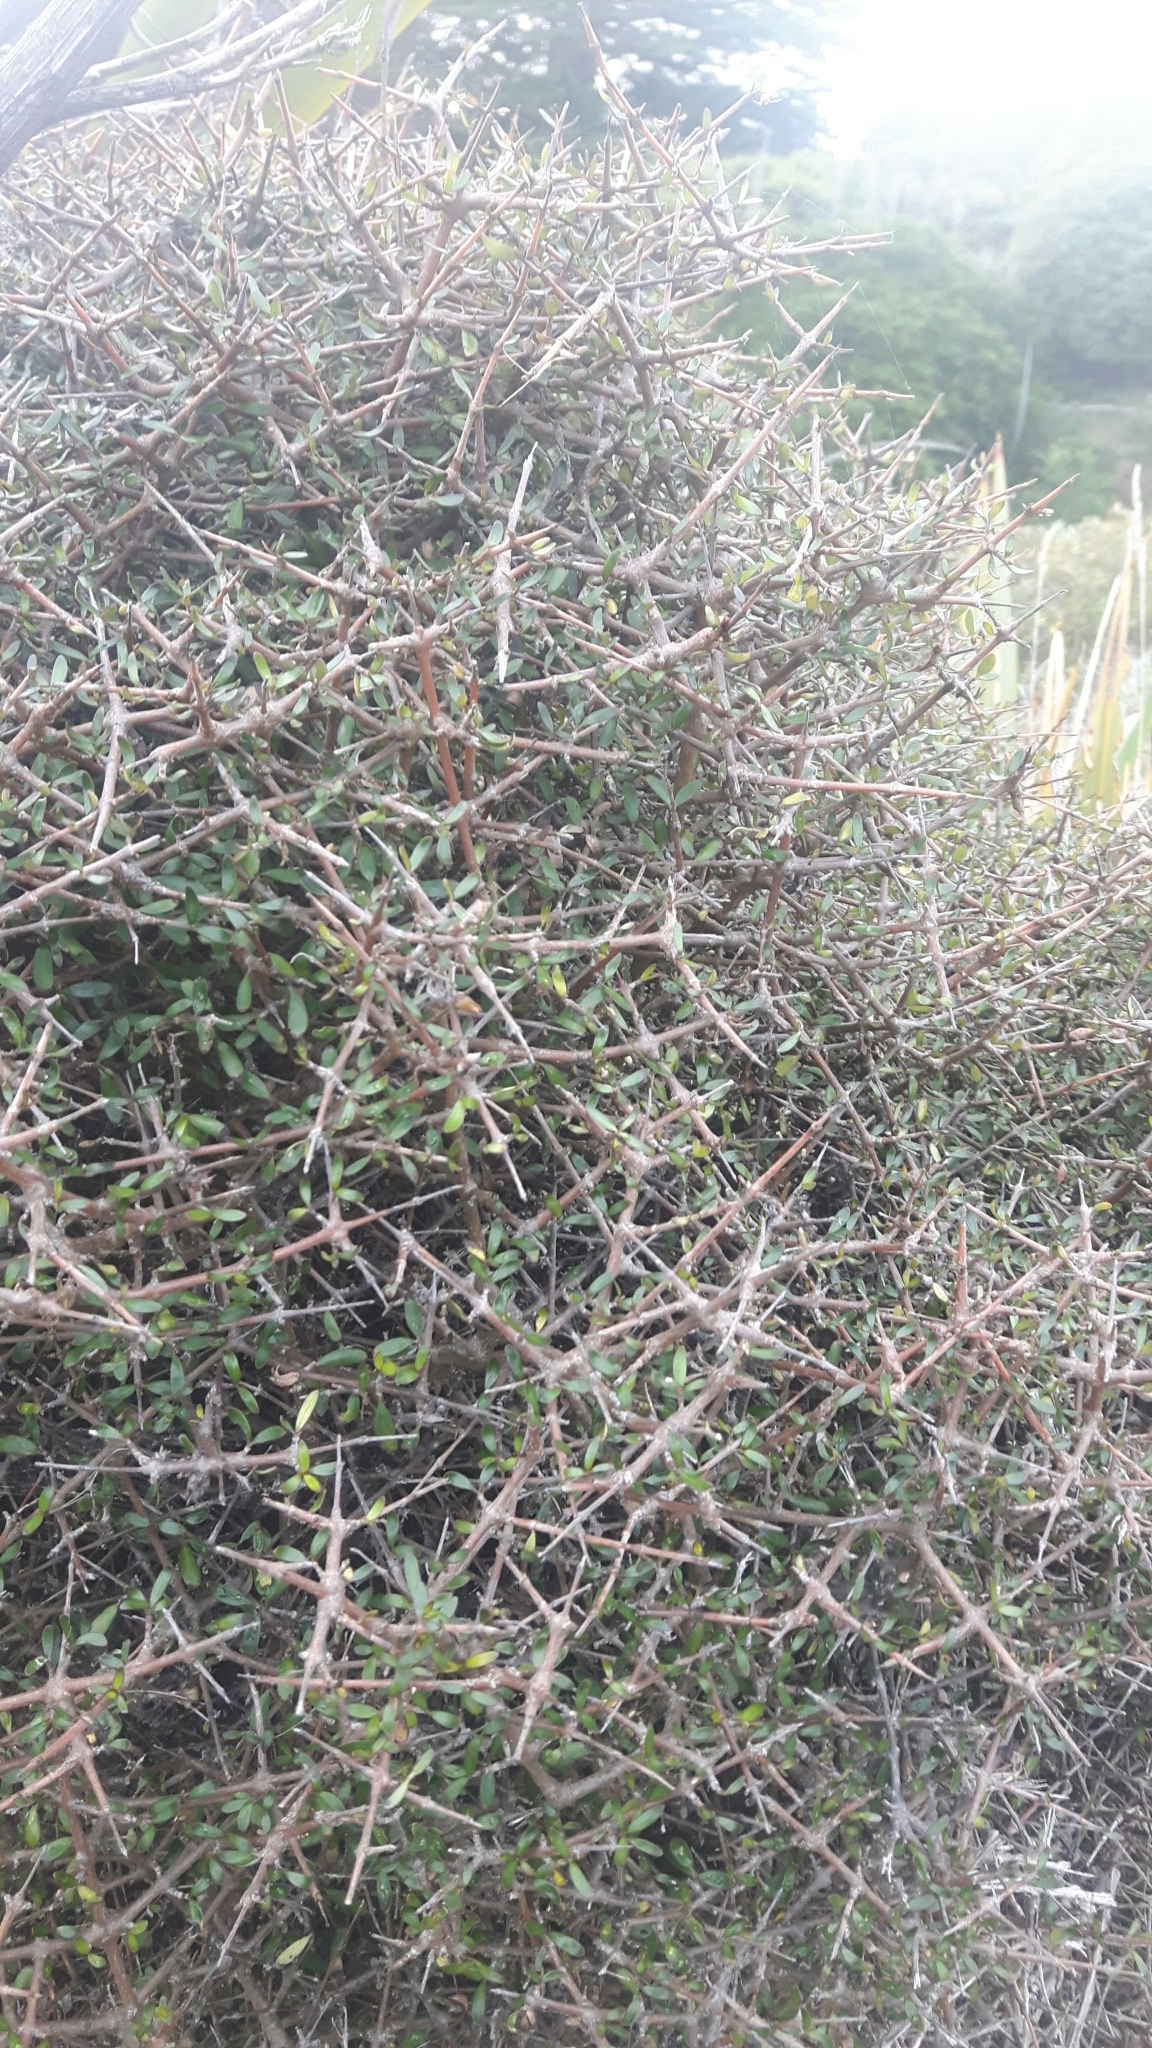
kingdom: Plantae
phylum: Tracheophyta
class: Magnoliopsida
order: Gentianales
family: Rubiaceae
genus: Coprosma
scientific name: Coprosma propinqua
